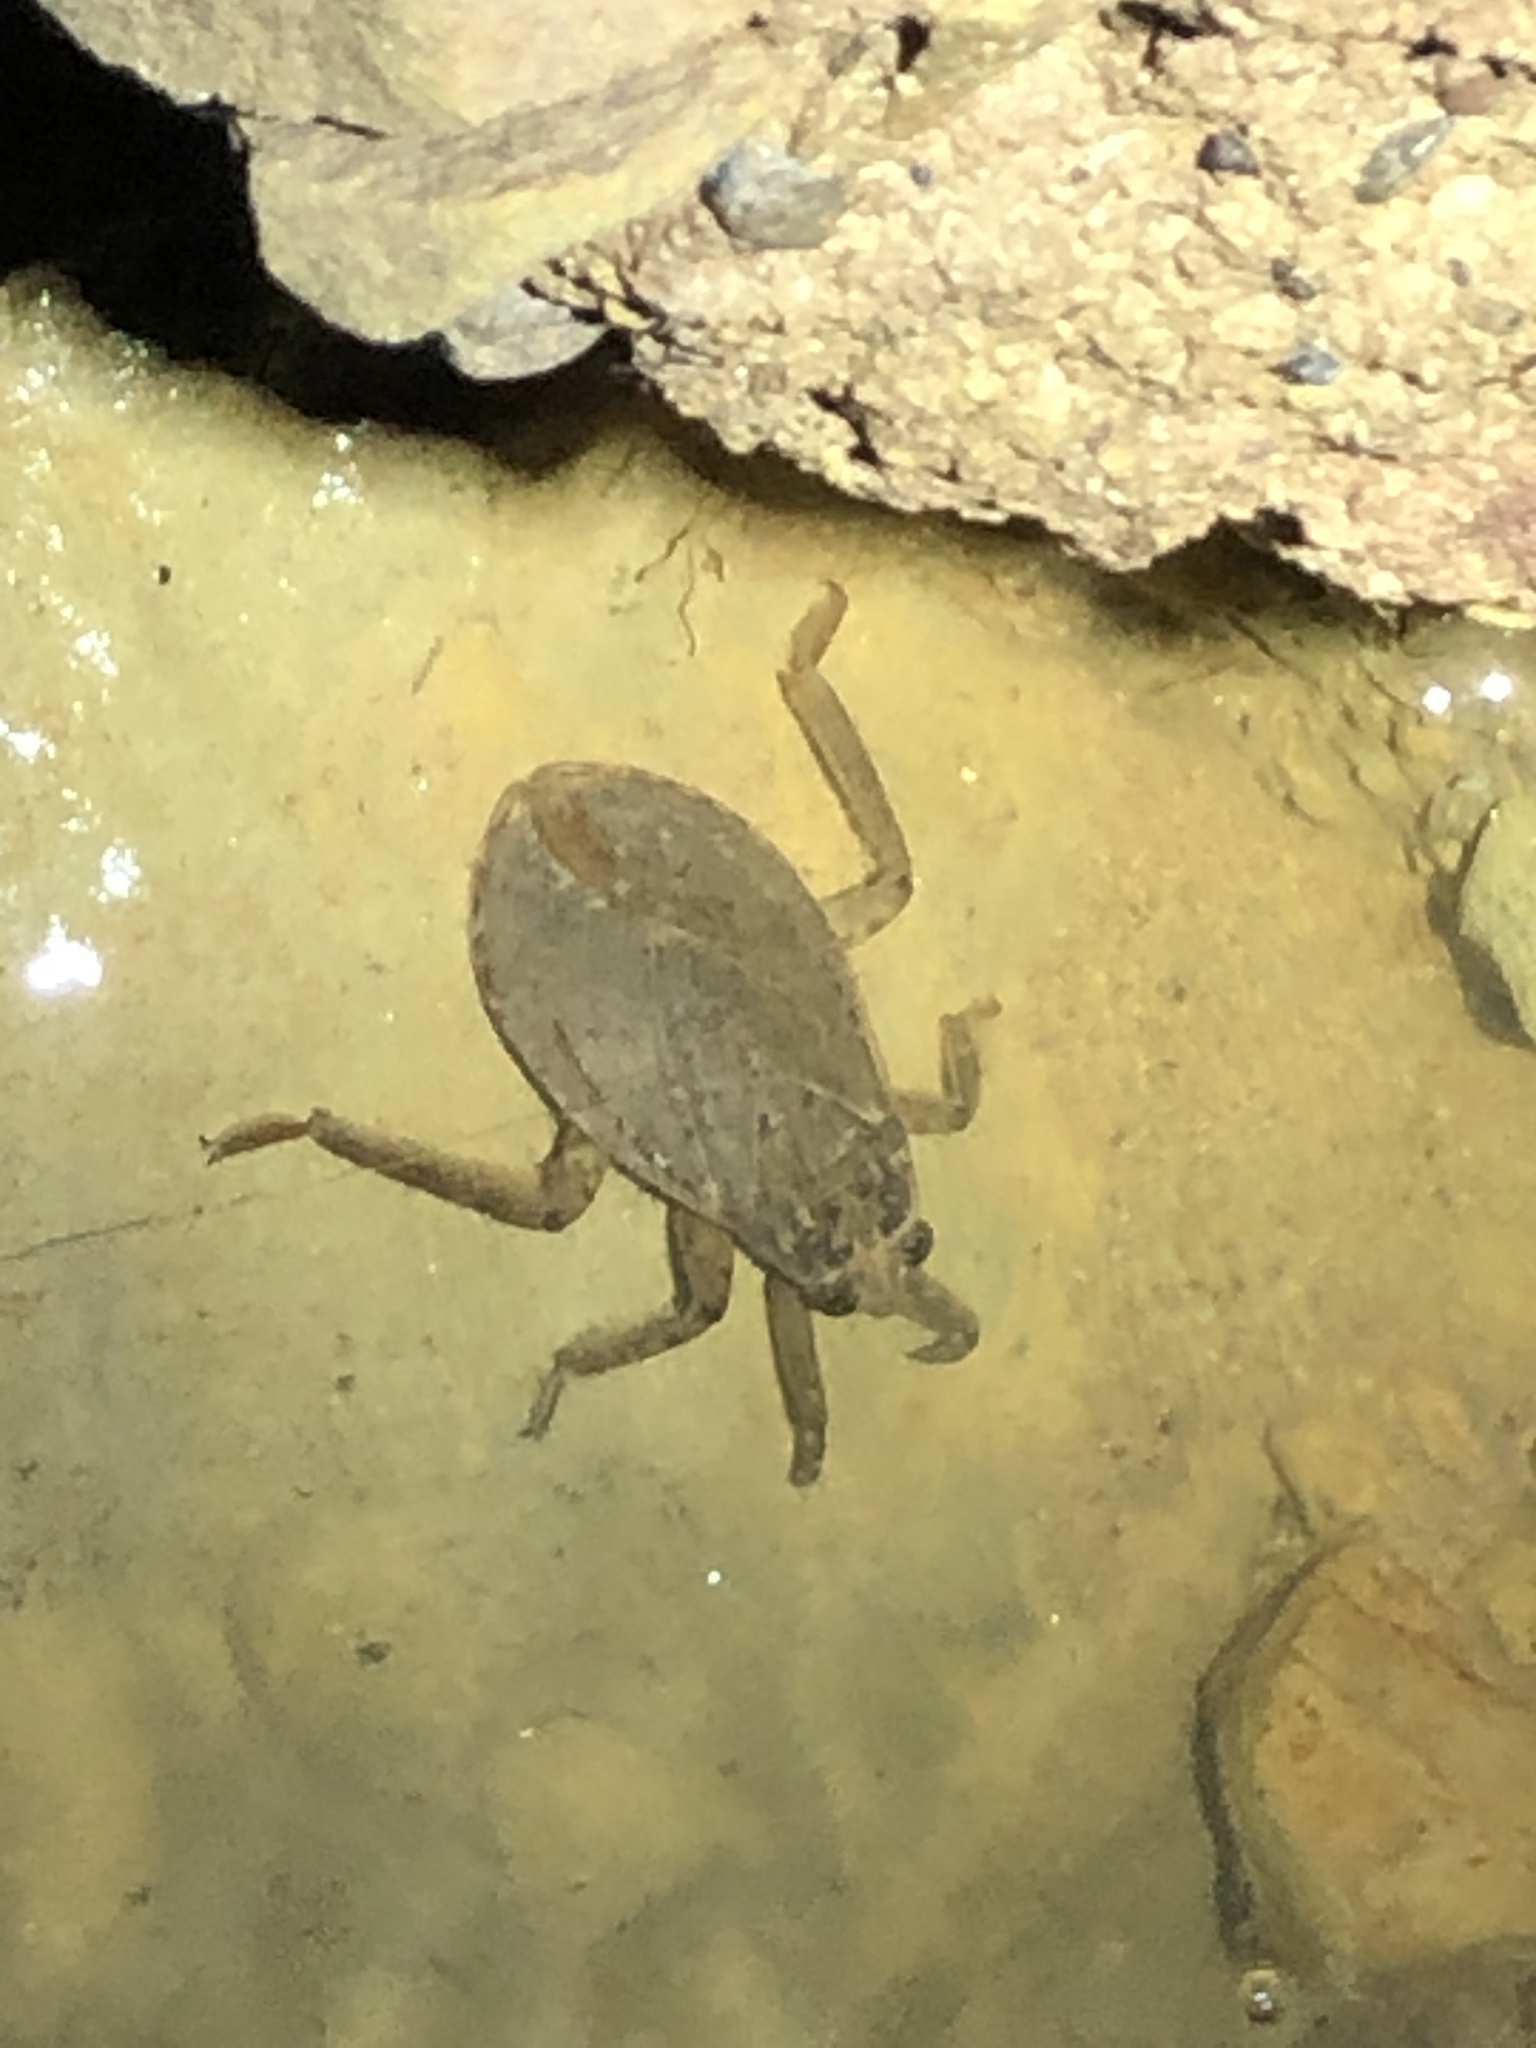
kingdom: Animalia
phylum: Arthropoda
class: Insecta
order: Hemiptera
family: Belostomatidae
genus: Abedus
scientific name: Abedus indentatus
